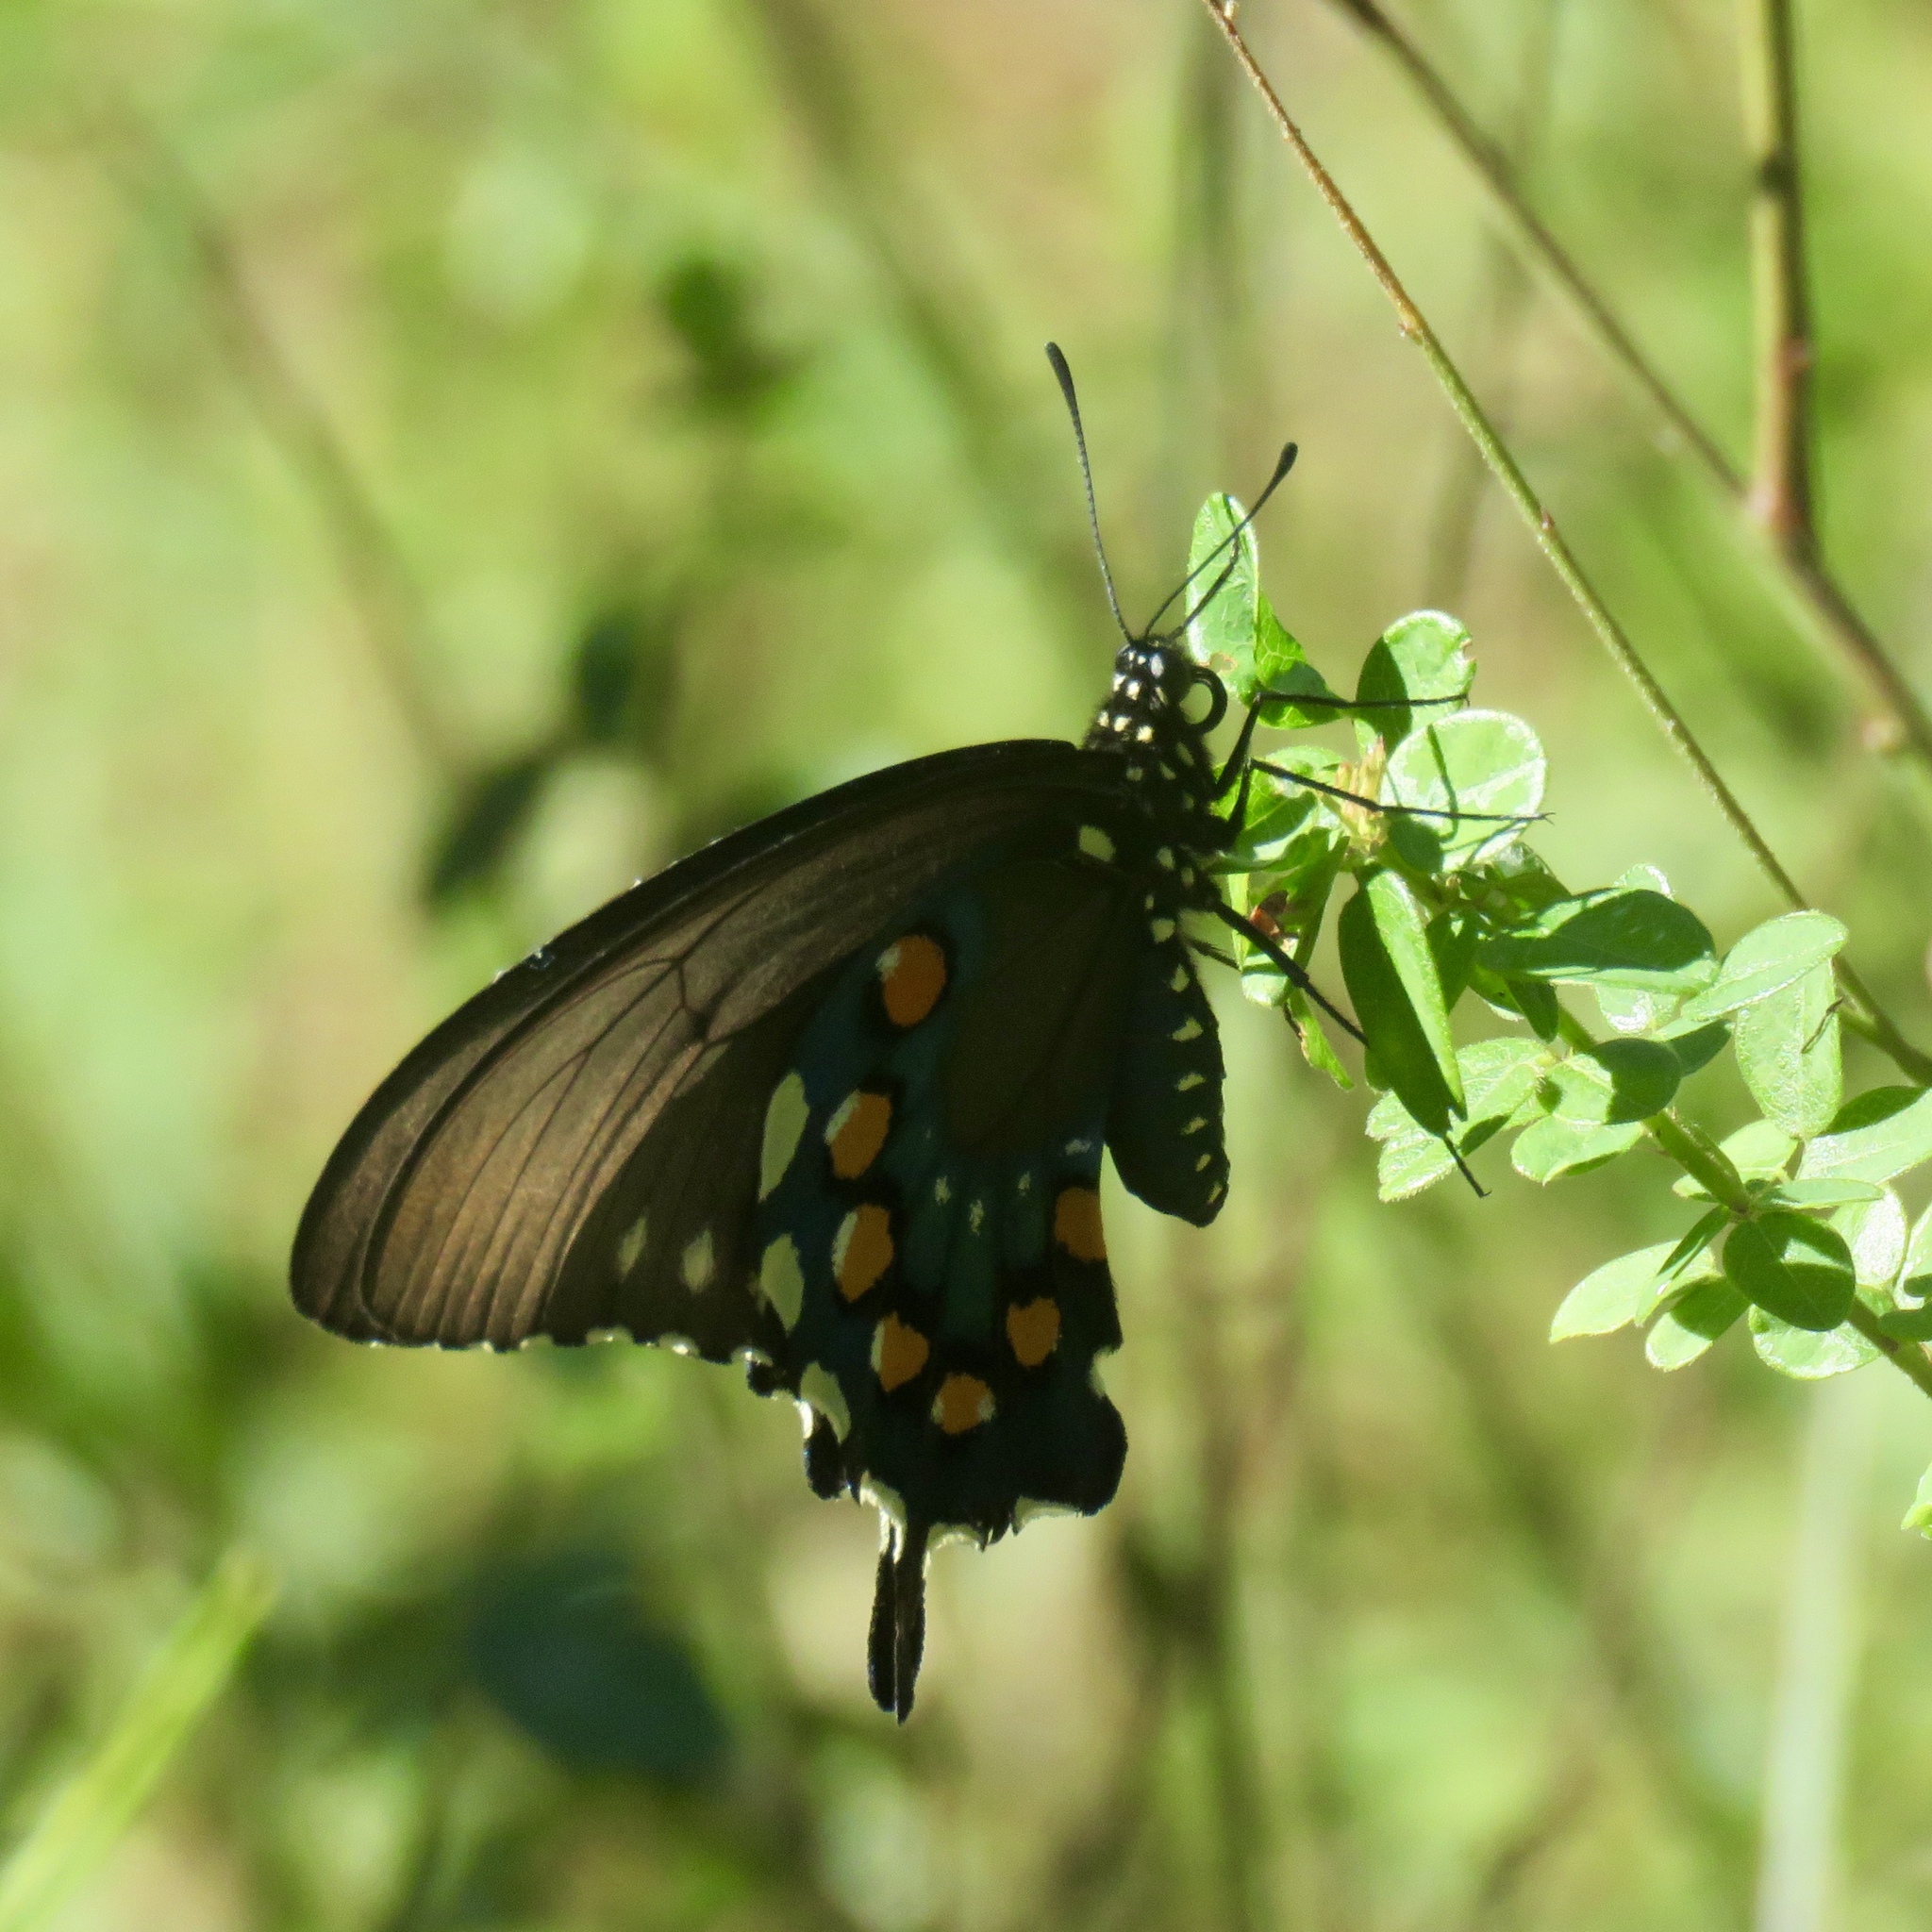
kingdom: Animalia
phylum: Arthropoda
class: Insecta
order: Lepidoptera
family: Papilionidae
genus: Battus
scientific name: Battus philenor
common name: Pipevine swallowtail
